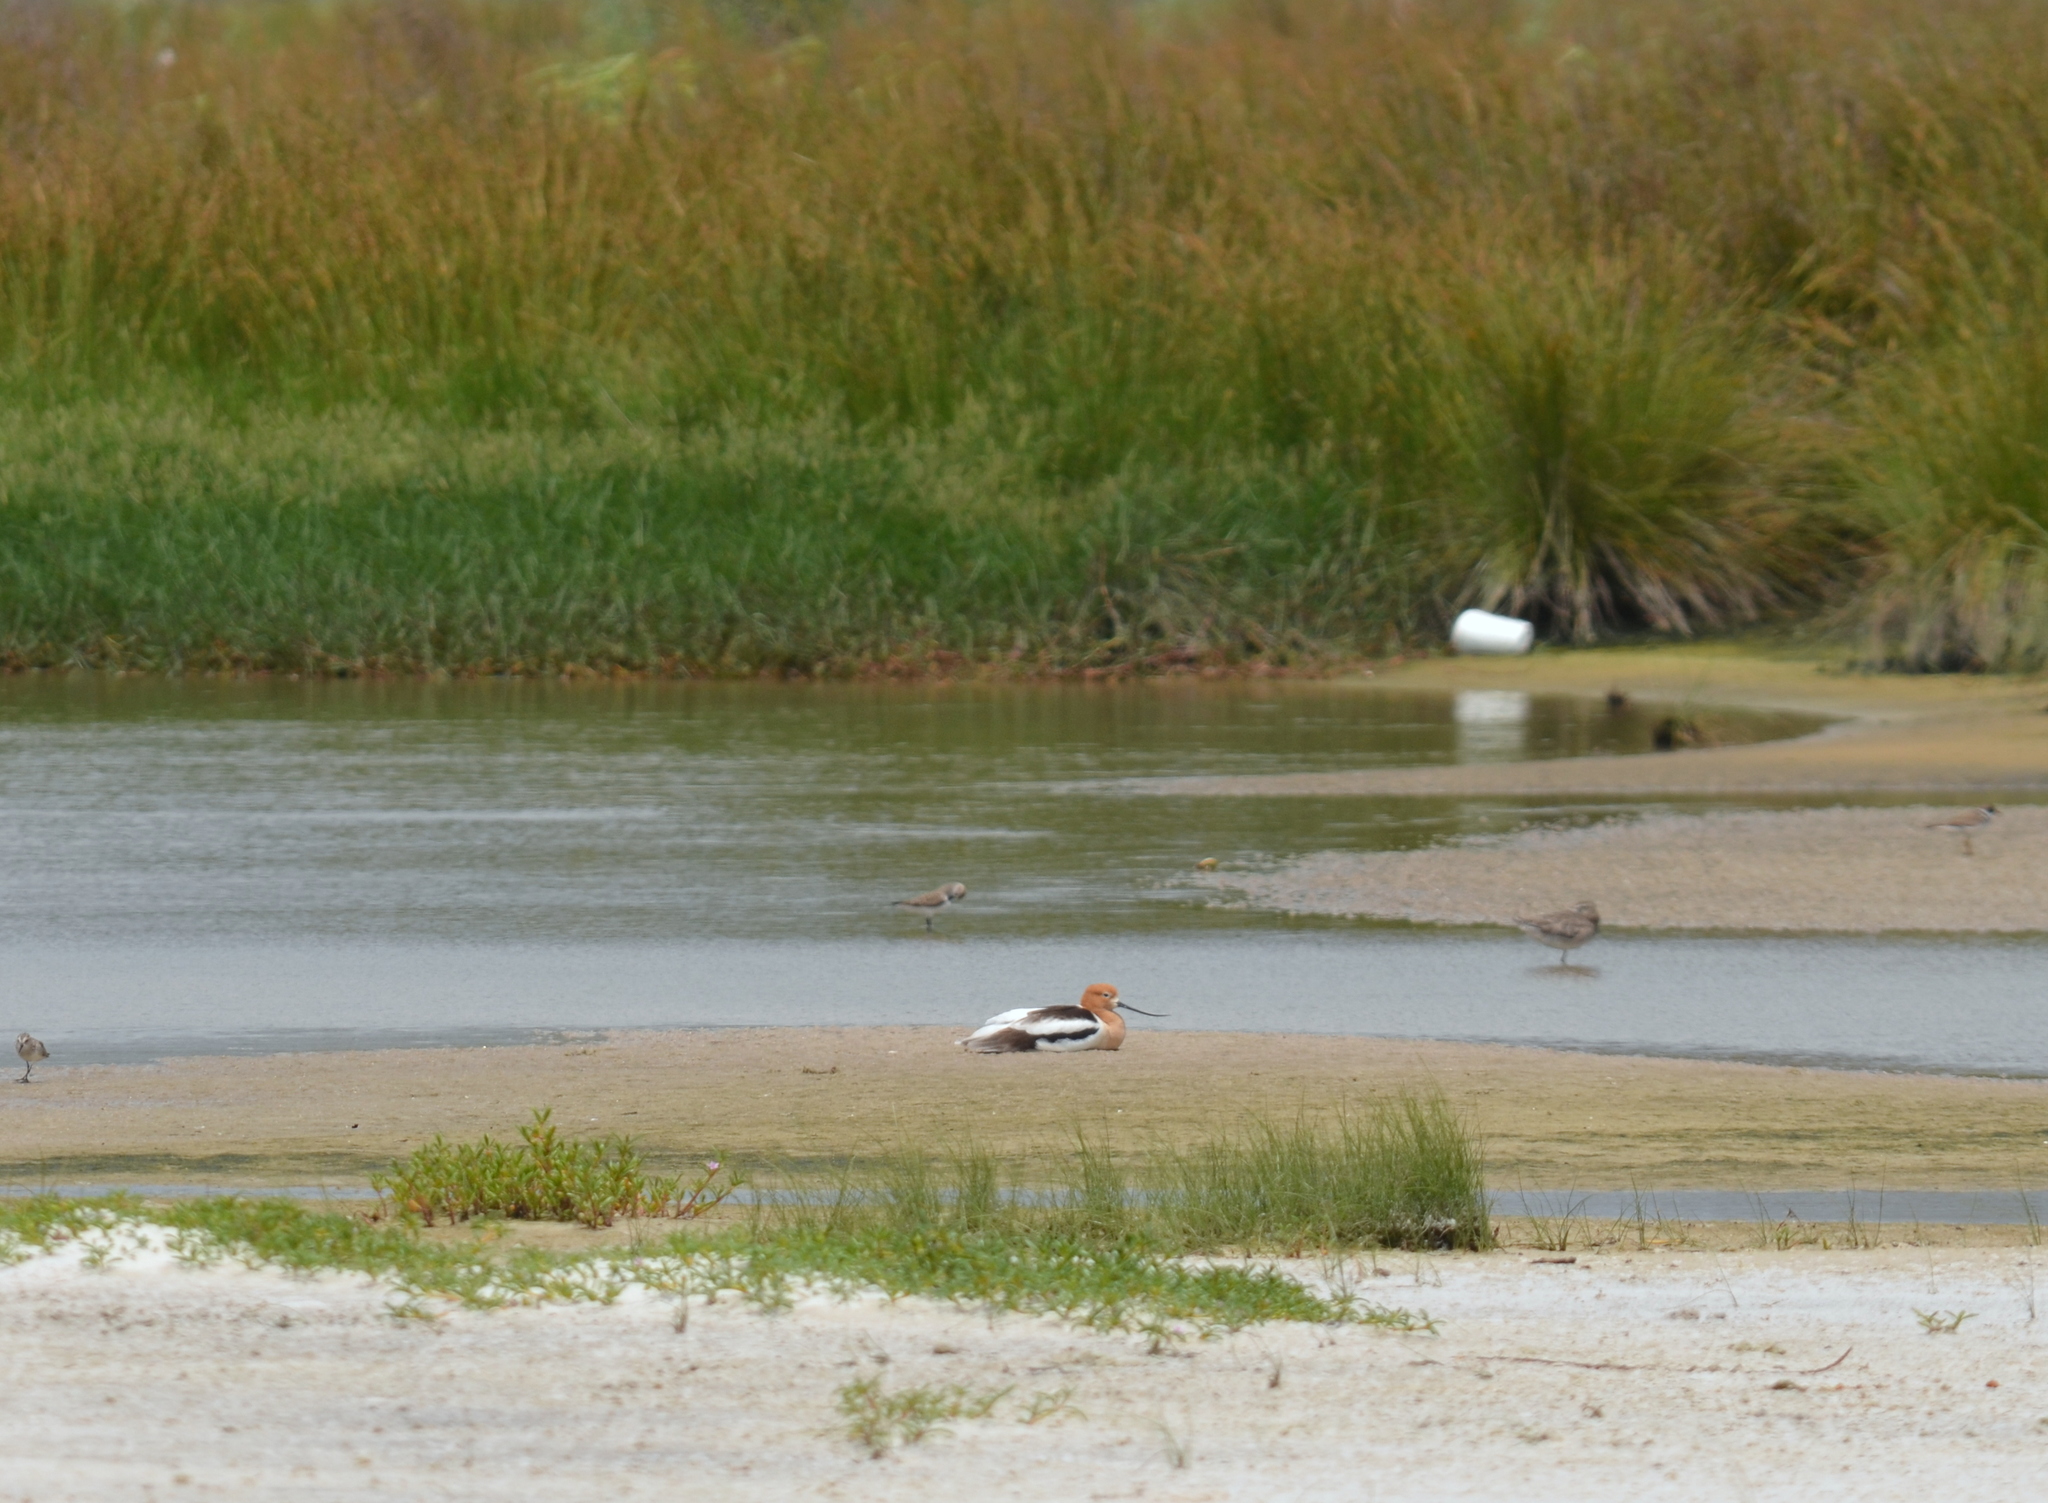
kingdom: Animalia
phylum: Chordata
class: Aves
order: Charadriiformes
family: Recurvirostridae
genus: Recurvirostra
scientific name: Recurvirostra americana
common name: American avocet
